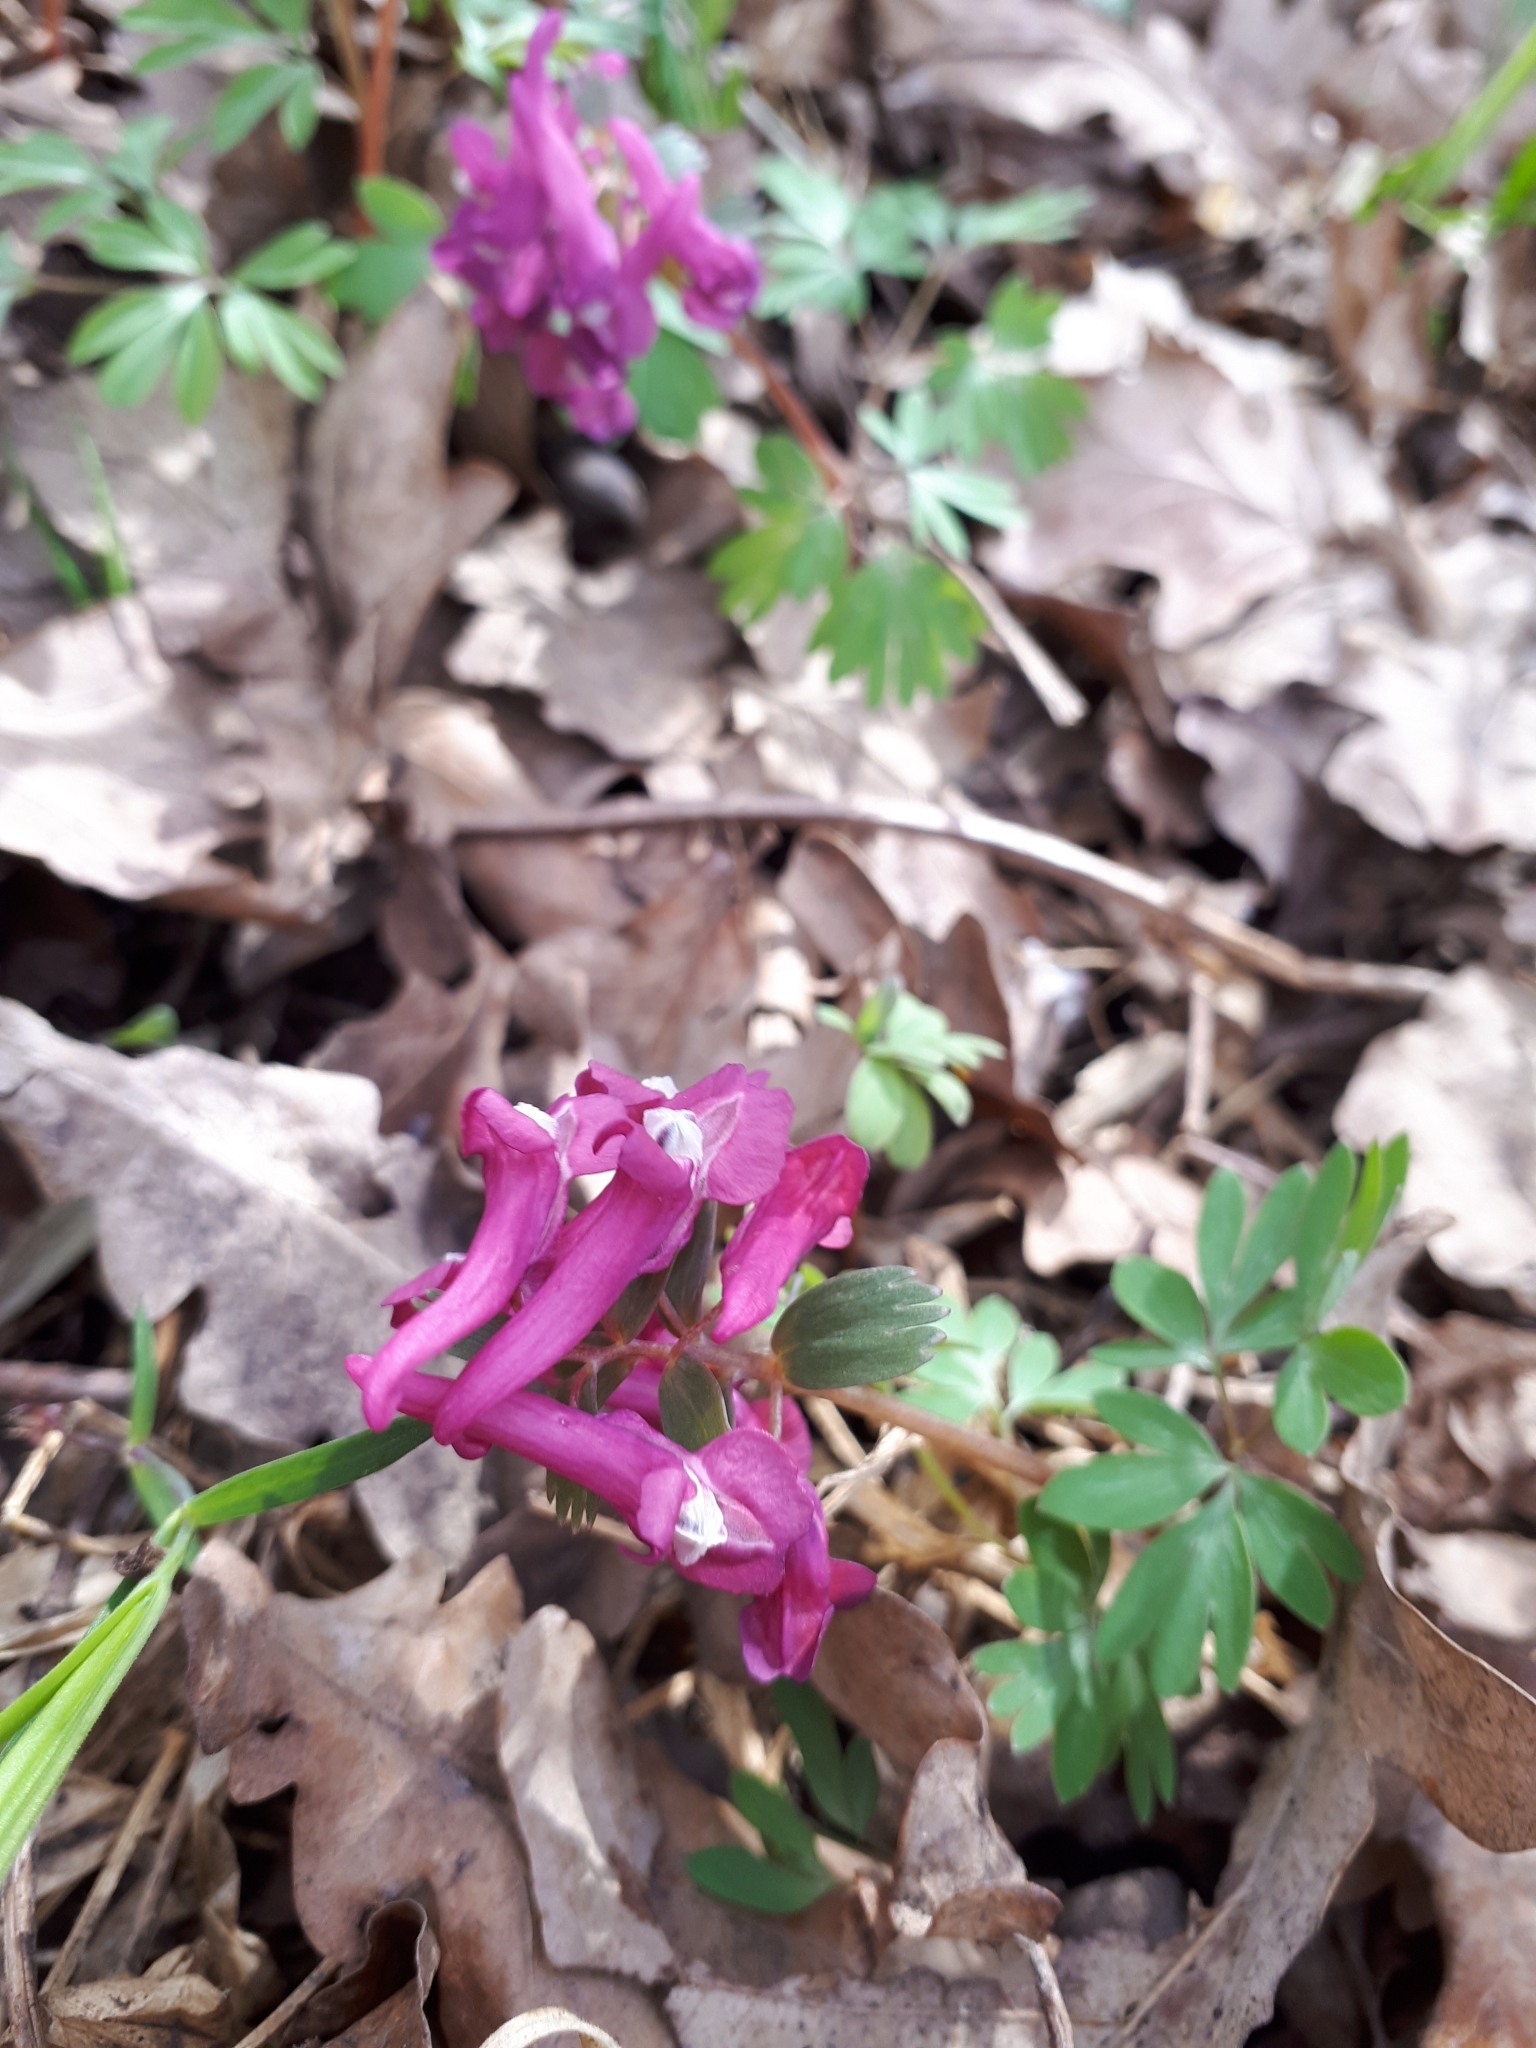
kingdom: Plantae
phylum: Tracheophyta
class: Magnoliopsida
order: Ranunculales
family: Papaveraceae
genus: Corydalis
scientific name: Corydalis solida
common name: Bird-in-a-bush
